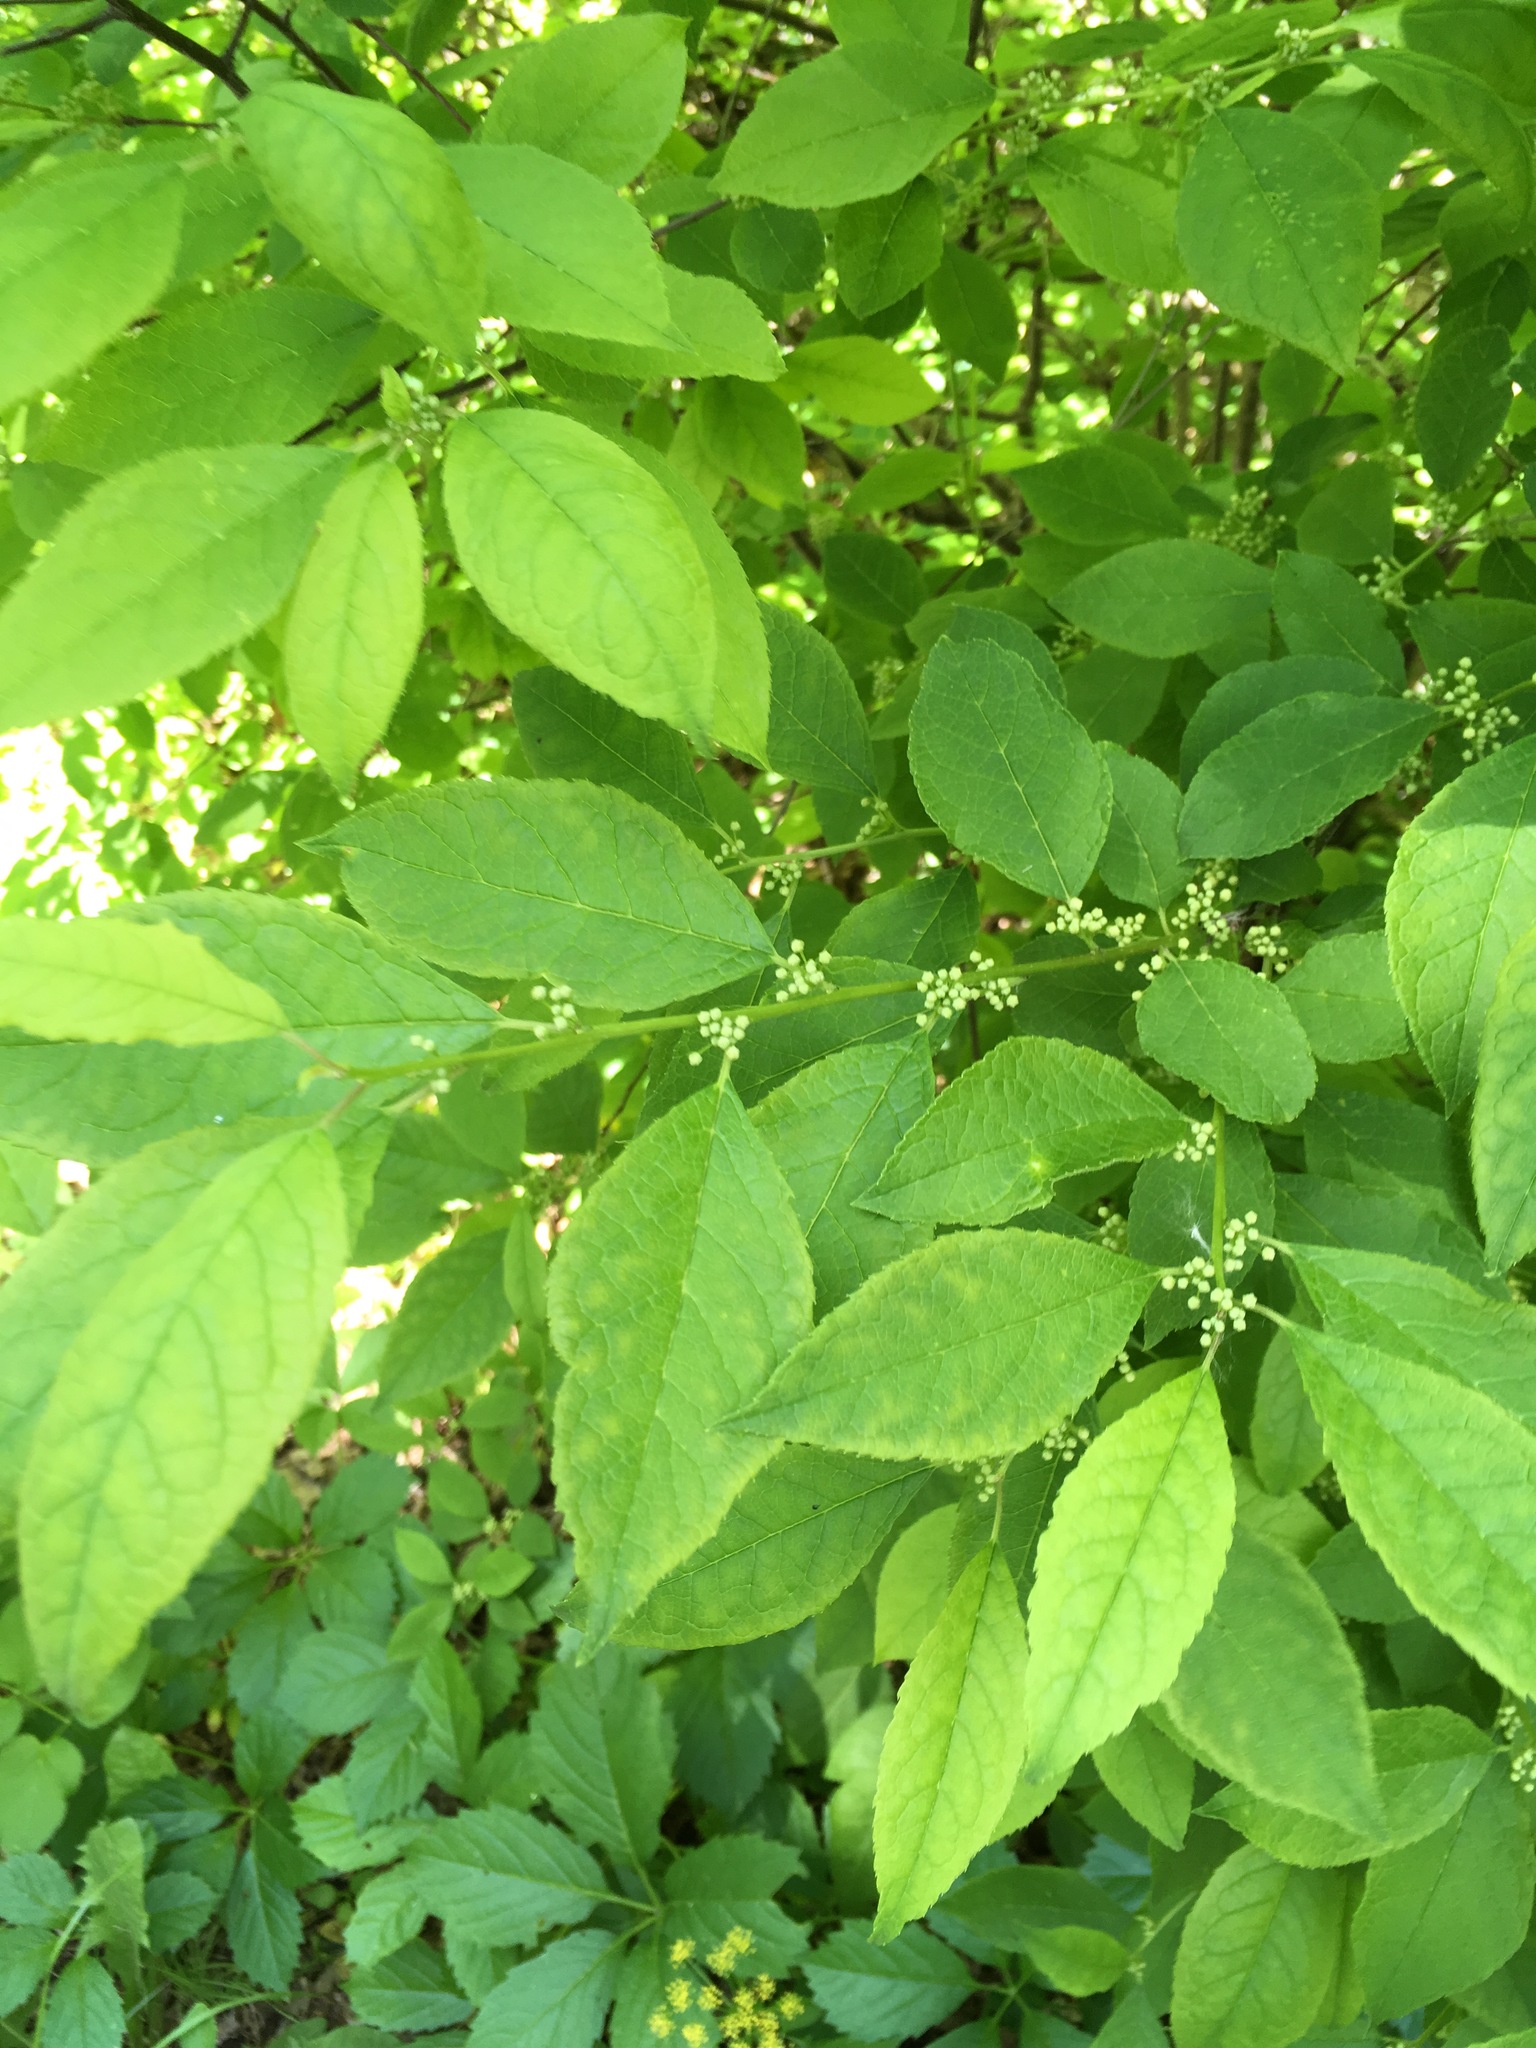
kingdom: Plantae
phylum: Tracheophyta
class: Magnoliopsida
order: Aquifoliales
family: Aquifoliaceae
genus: Ilex
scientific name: Ilex verticillata
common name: Virginia winterberry
